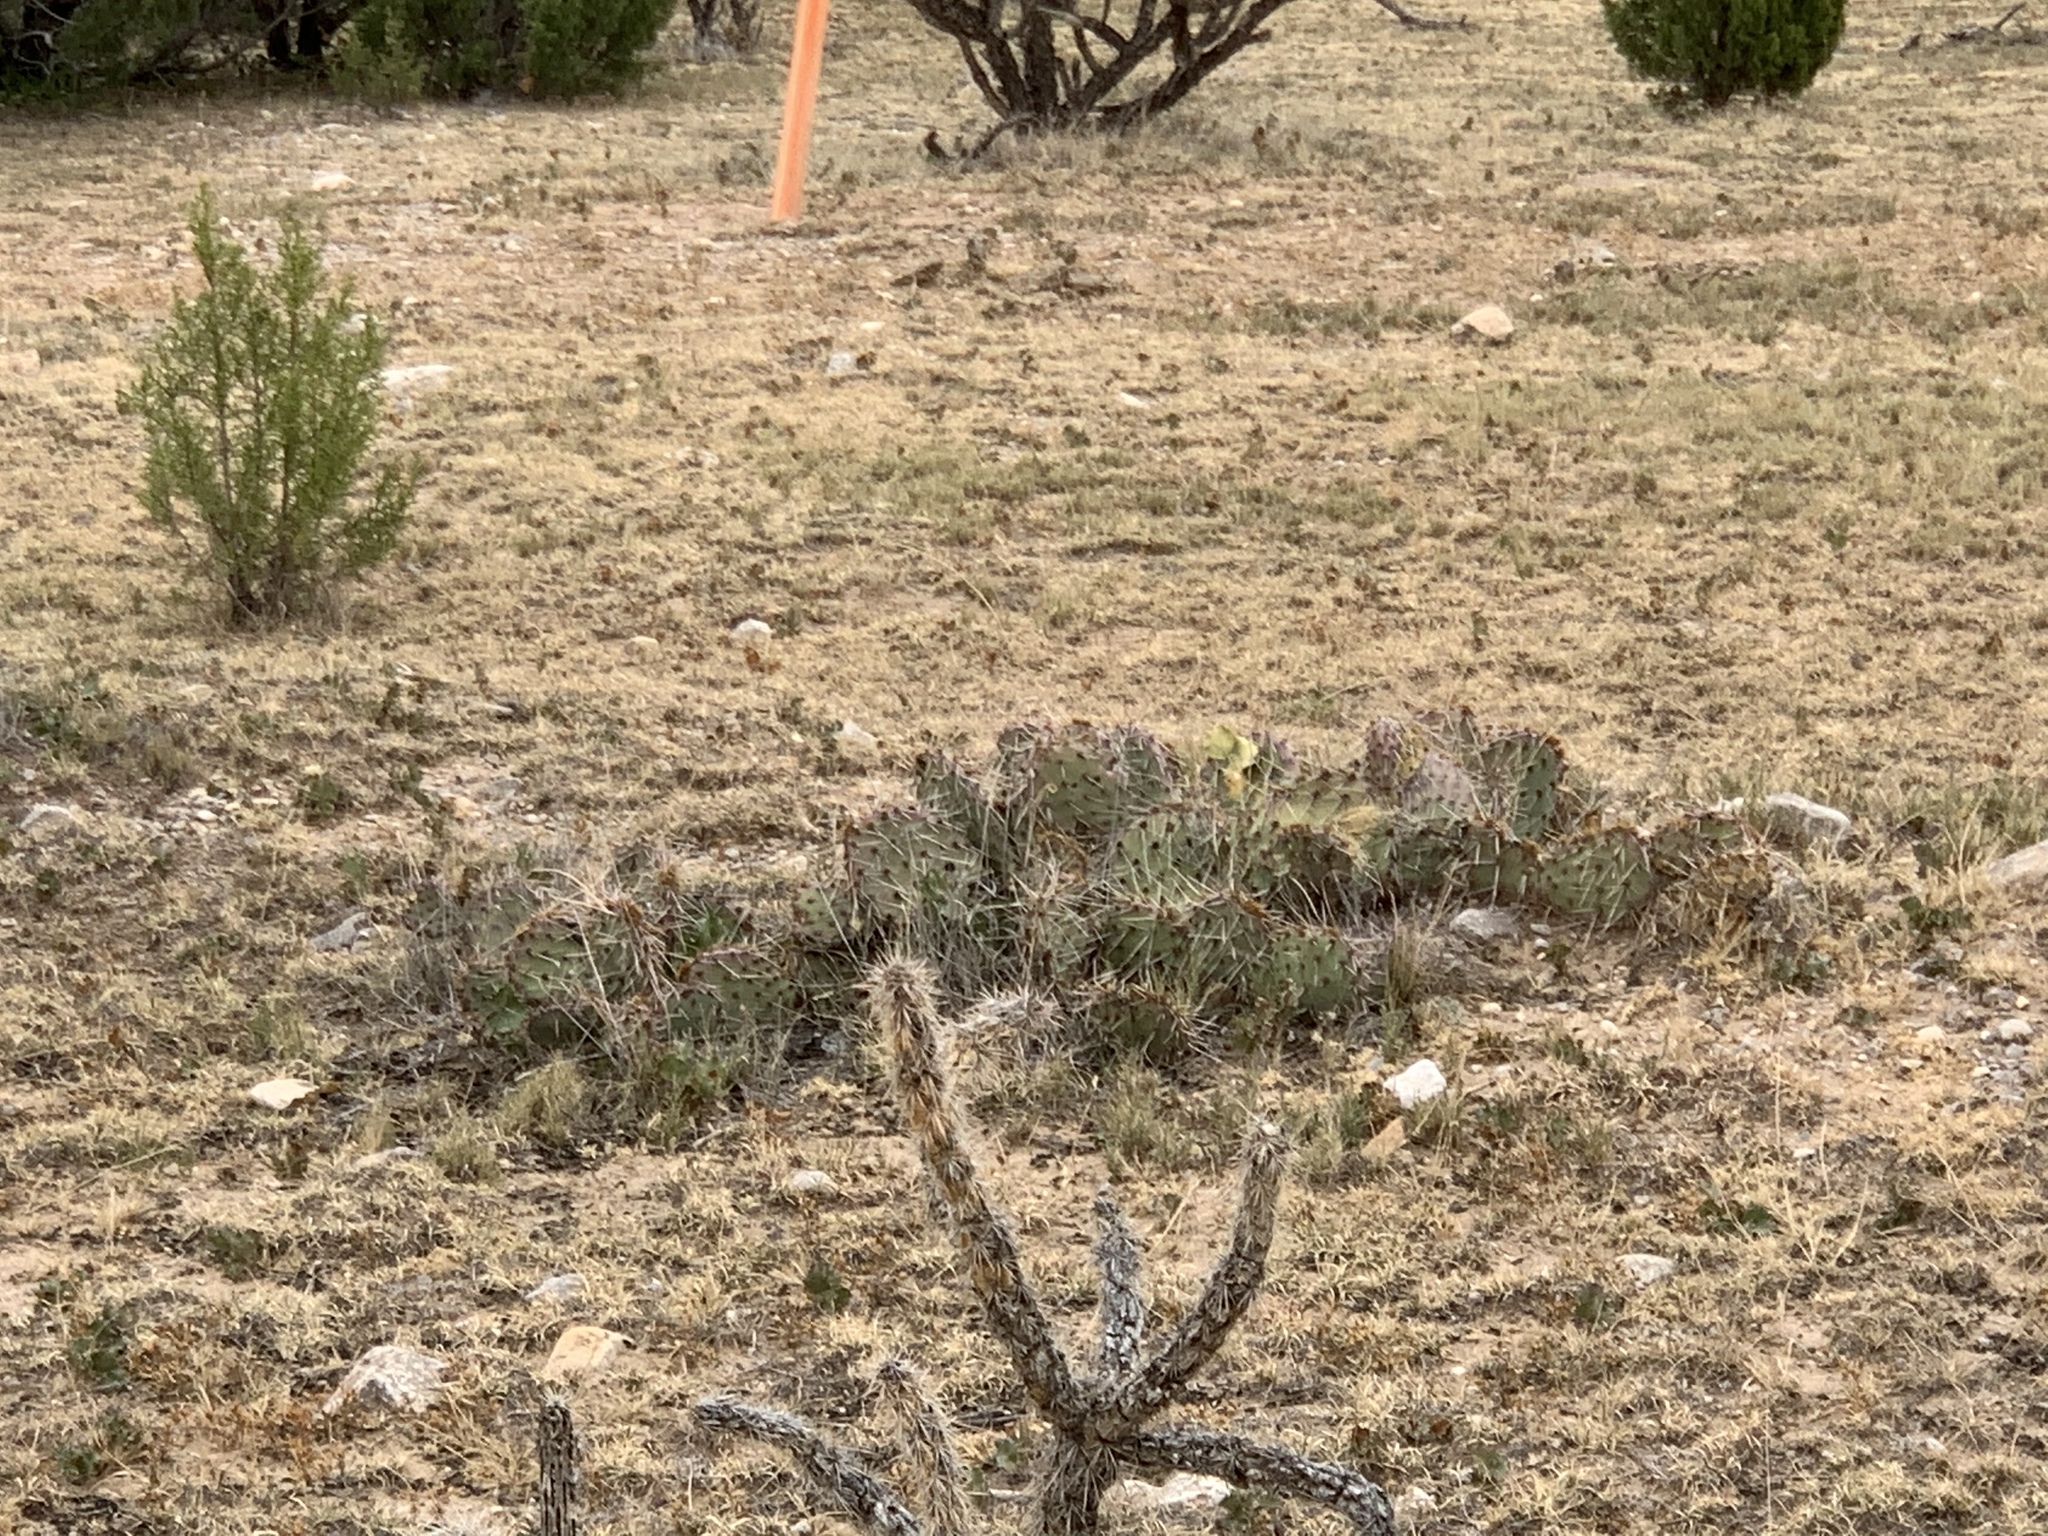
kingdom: Plantae
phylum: Tracheophyta
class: Magnoliopsida
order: Caryophyllales
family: Cactaceae
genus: Opuntia
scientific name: Opuntia macrorhiza
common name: Grassland pricklypear
